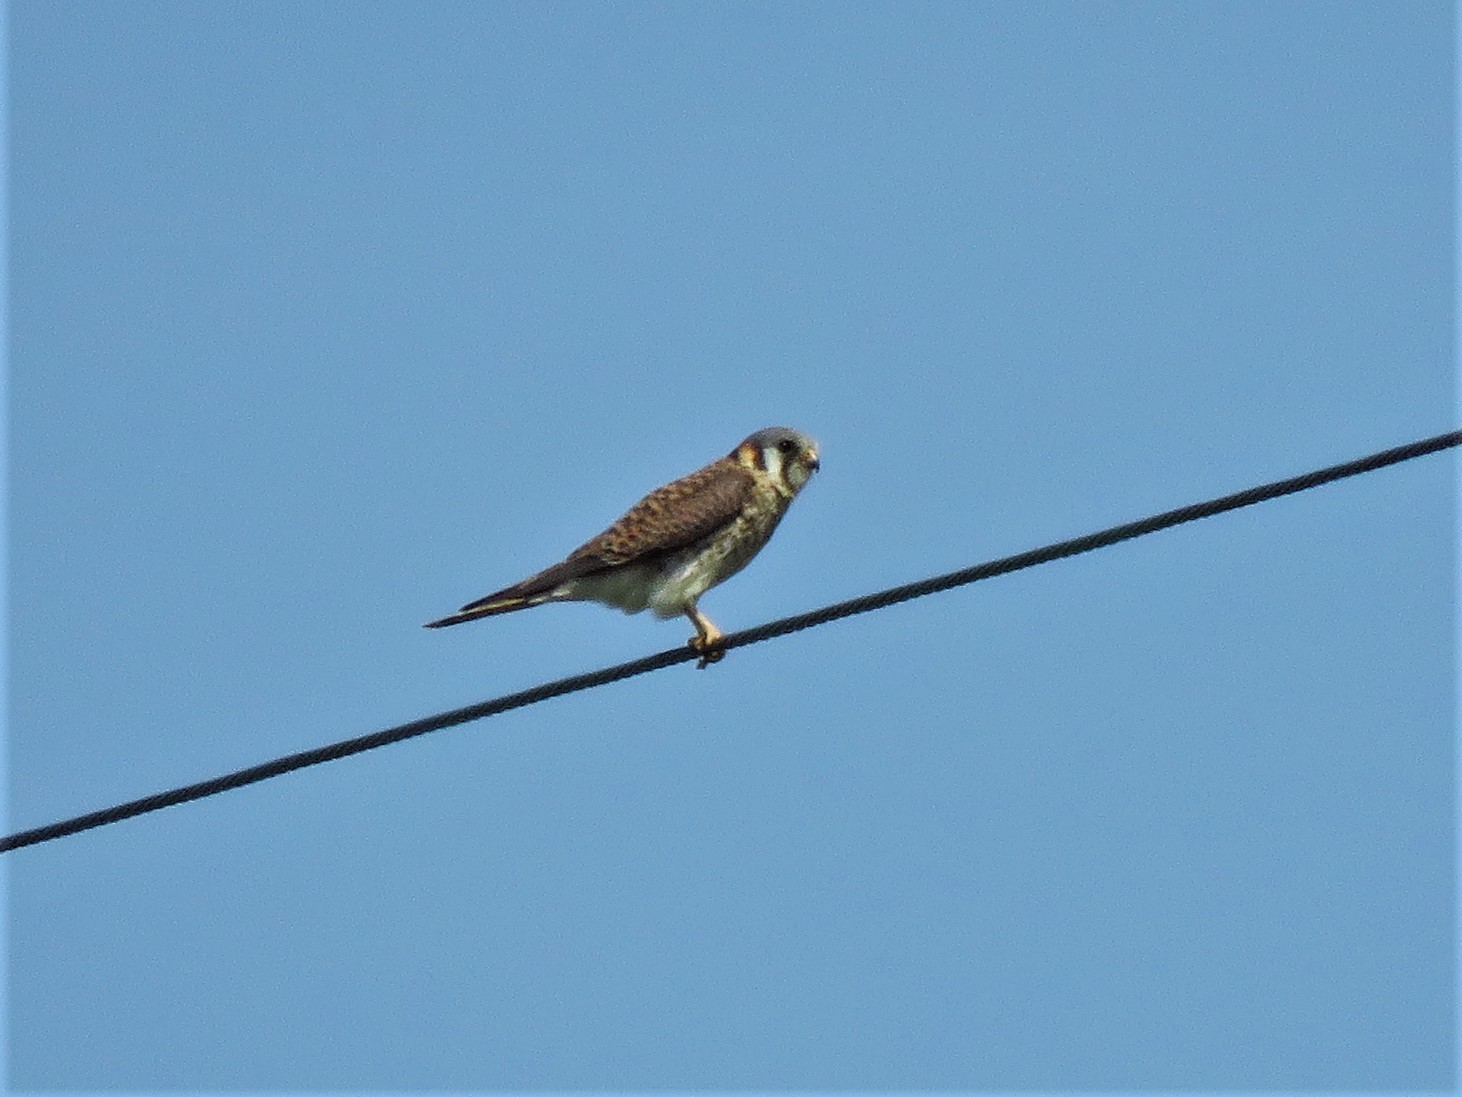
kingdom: Animalia
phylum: Chordata
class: Aves
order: Falconiformes
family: Falconidae
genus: Falco
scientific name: Falco sparverius
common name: American kestrel
